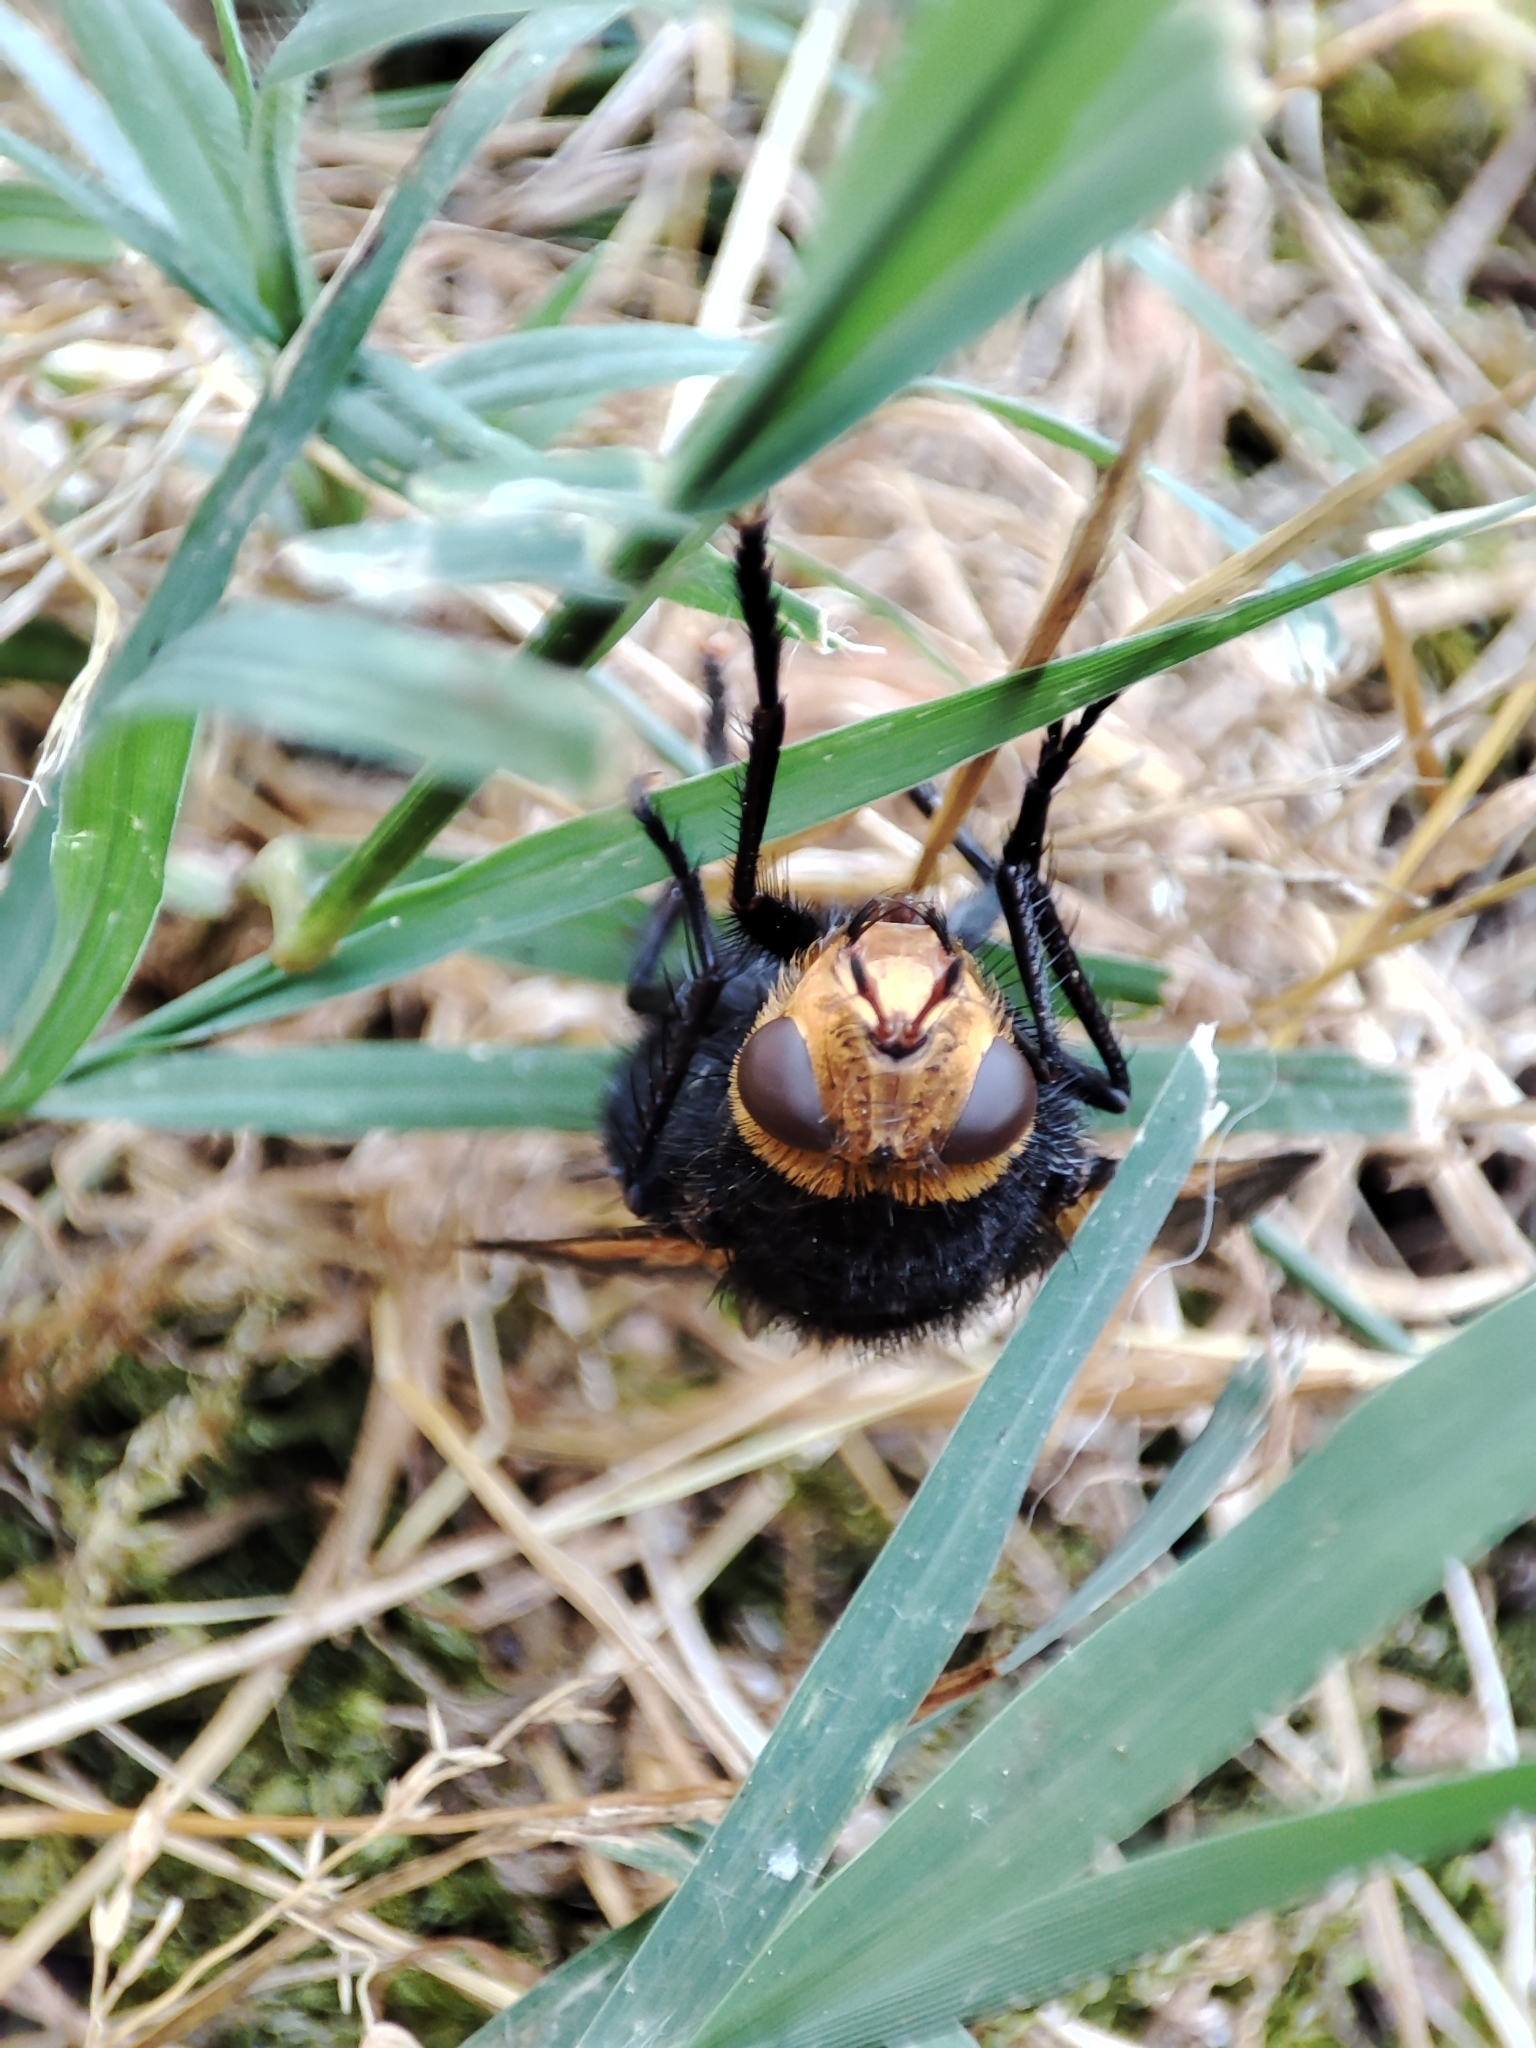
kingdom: Animalia
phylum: Arthropoda
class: Insecta
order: Diptera
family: Tachinidae
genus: Tachina
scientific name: Tachina grossa
